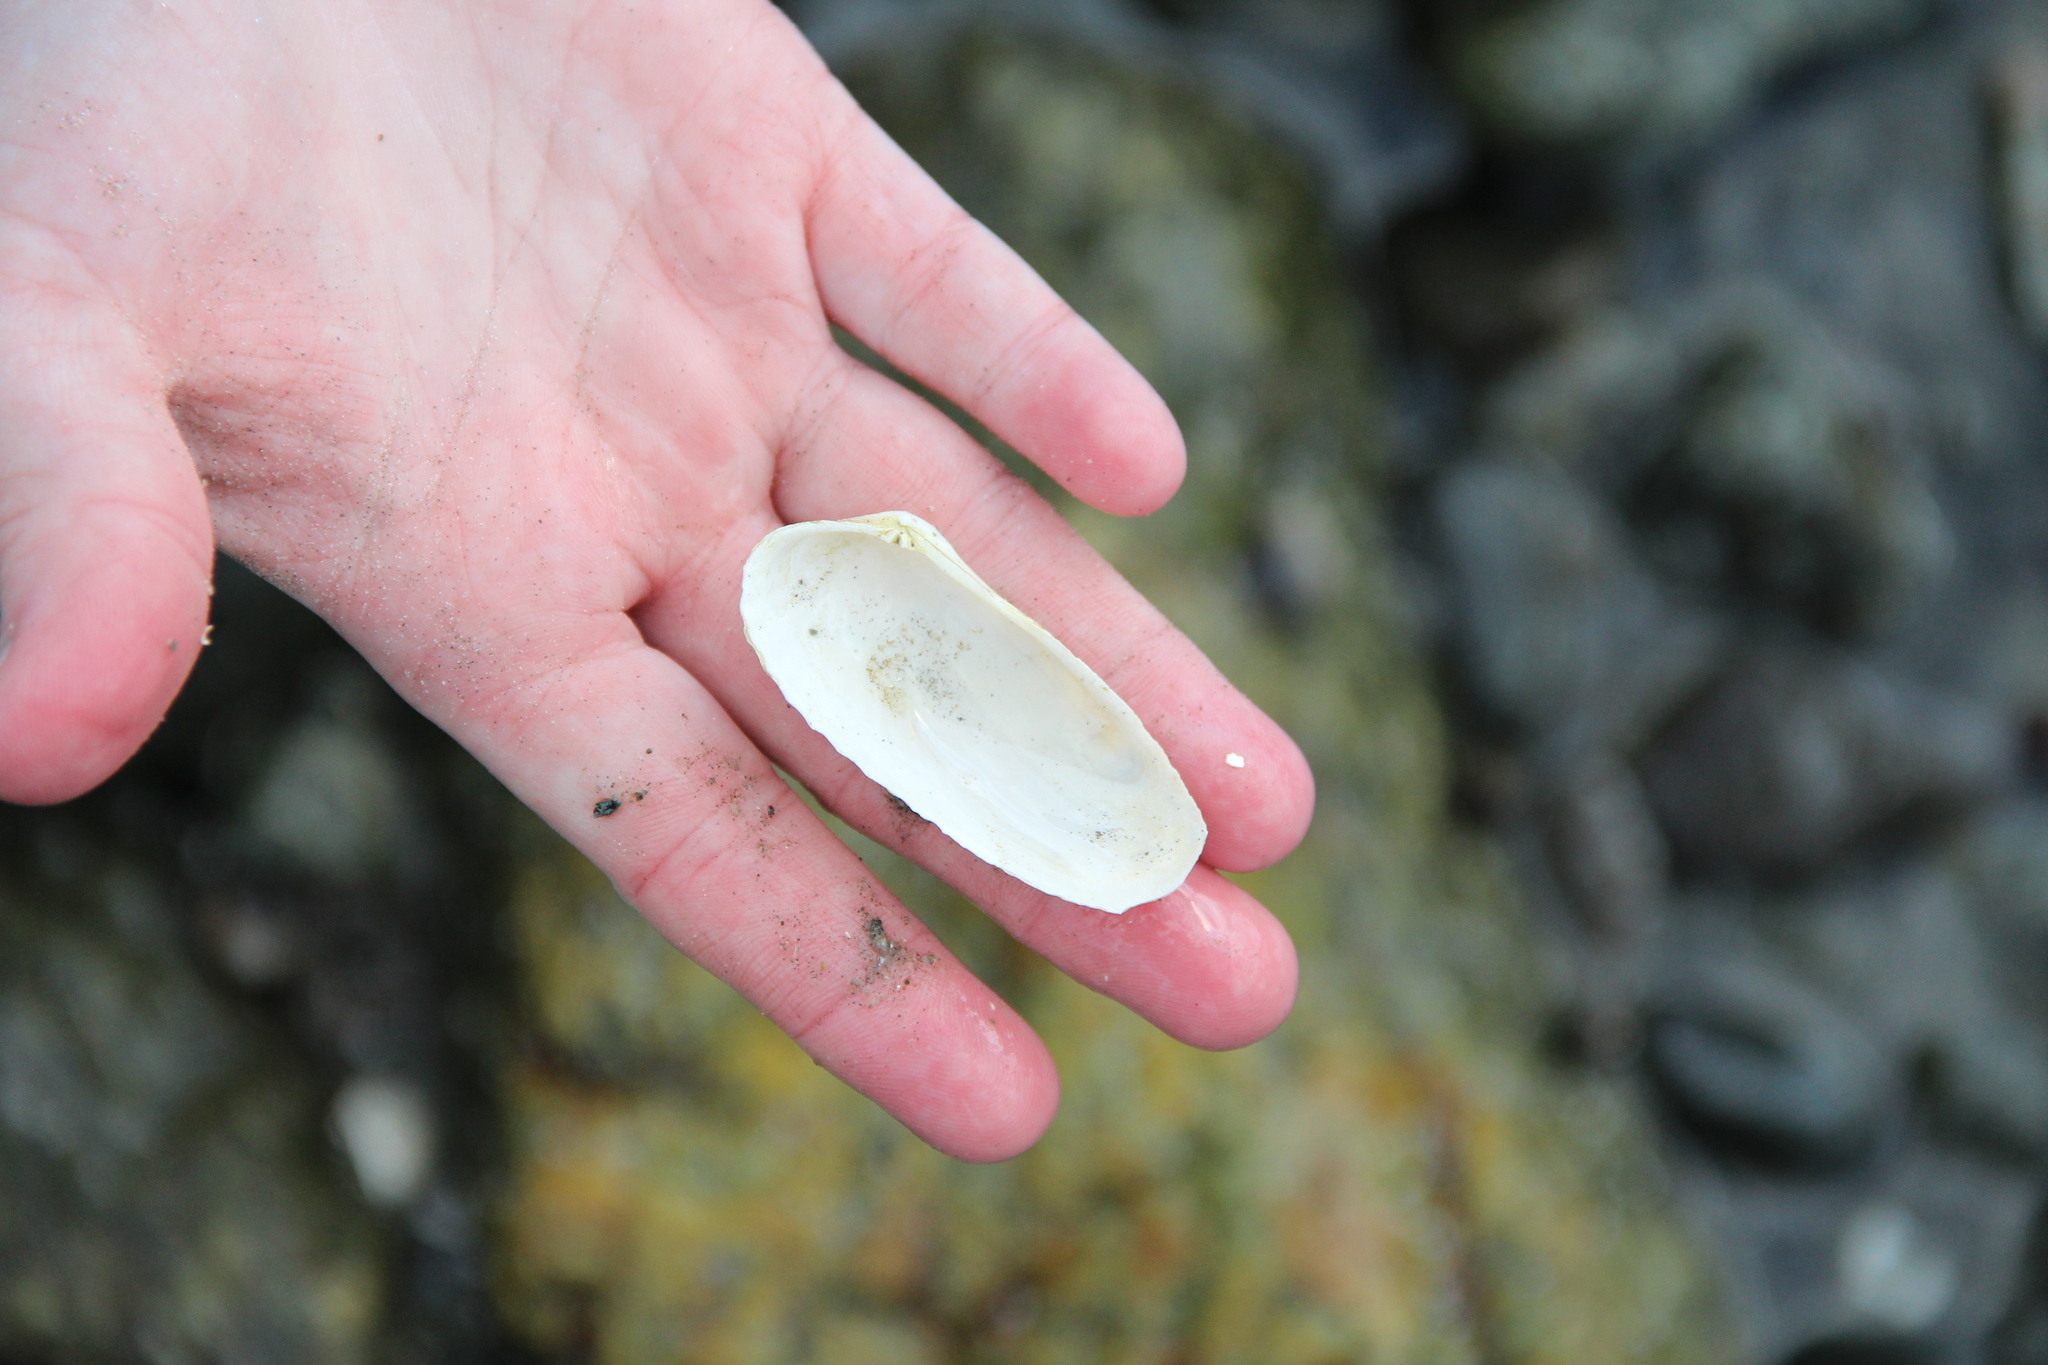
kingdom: Animalia
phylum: Mollusca
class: Bivalvia
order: Venerida
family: Veneridae
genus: Petricolaria
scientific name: Petricolaria pholadiformis
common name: American piddock
